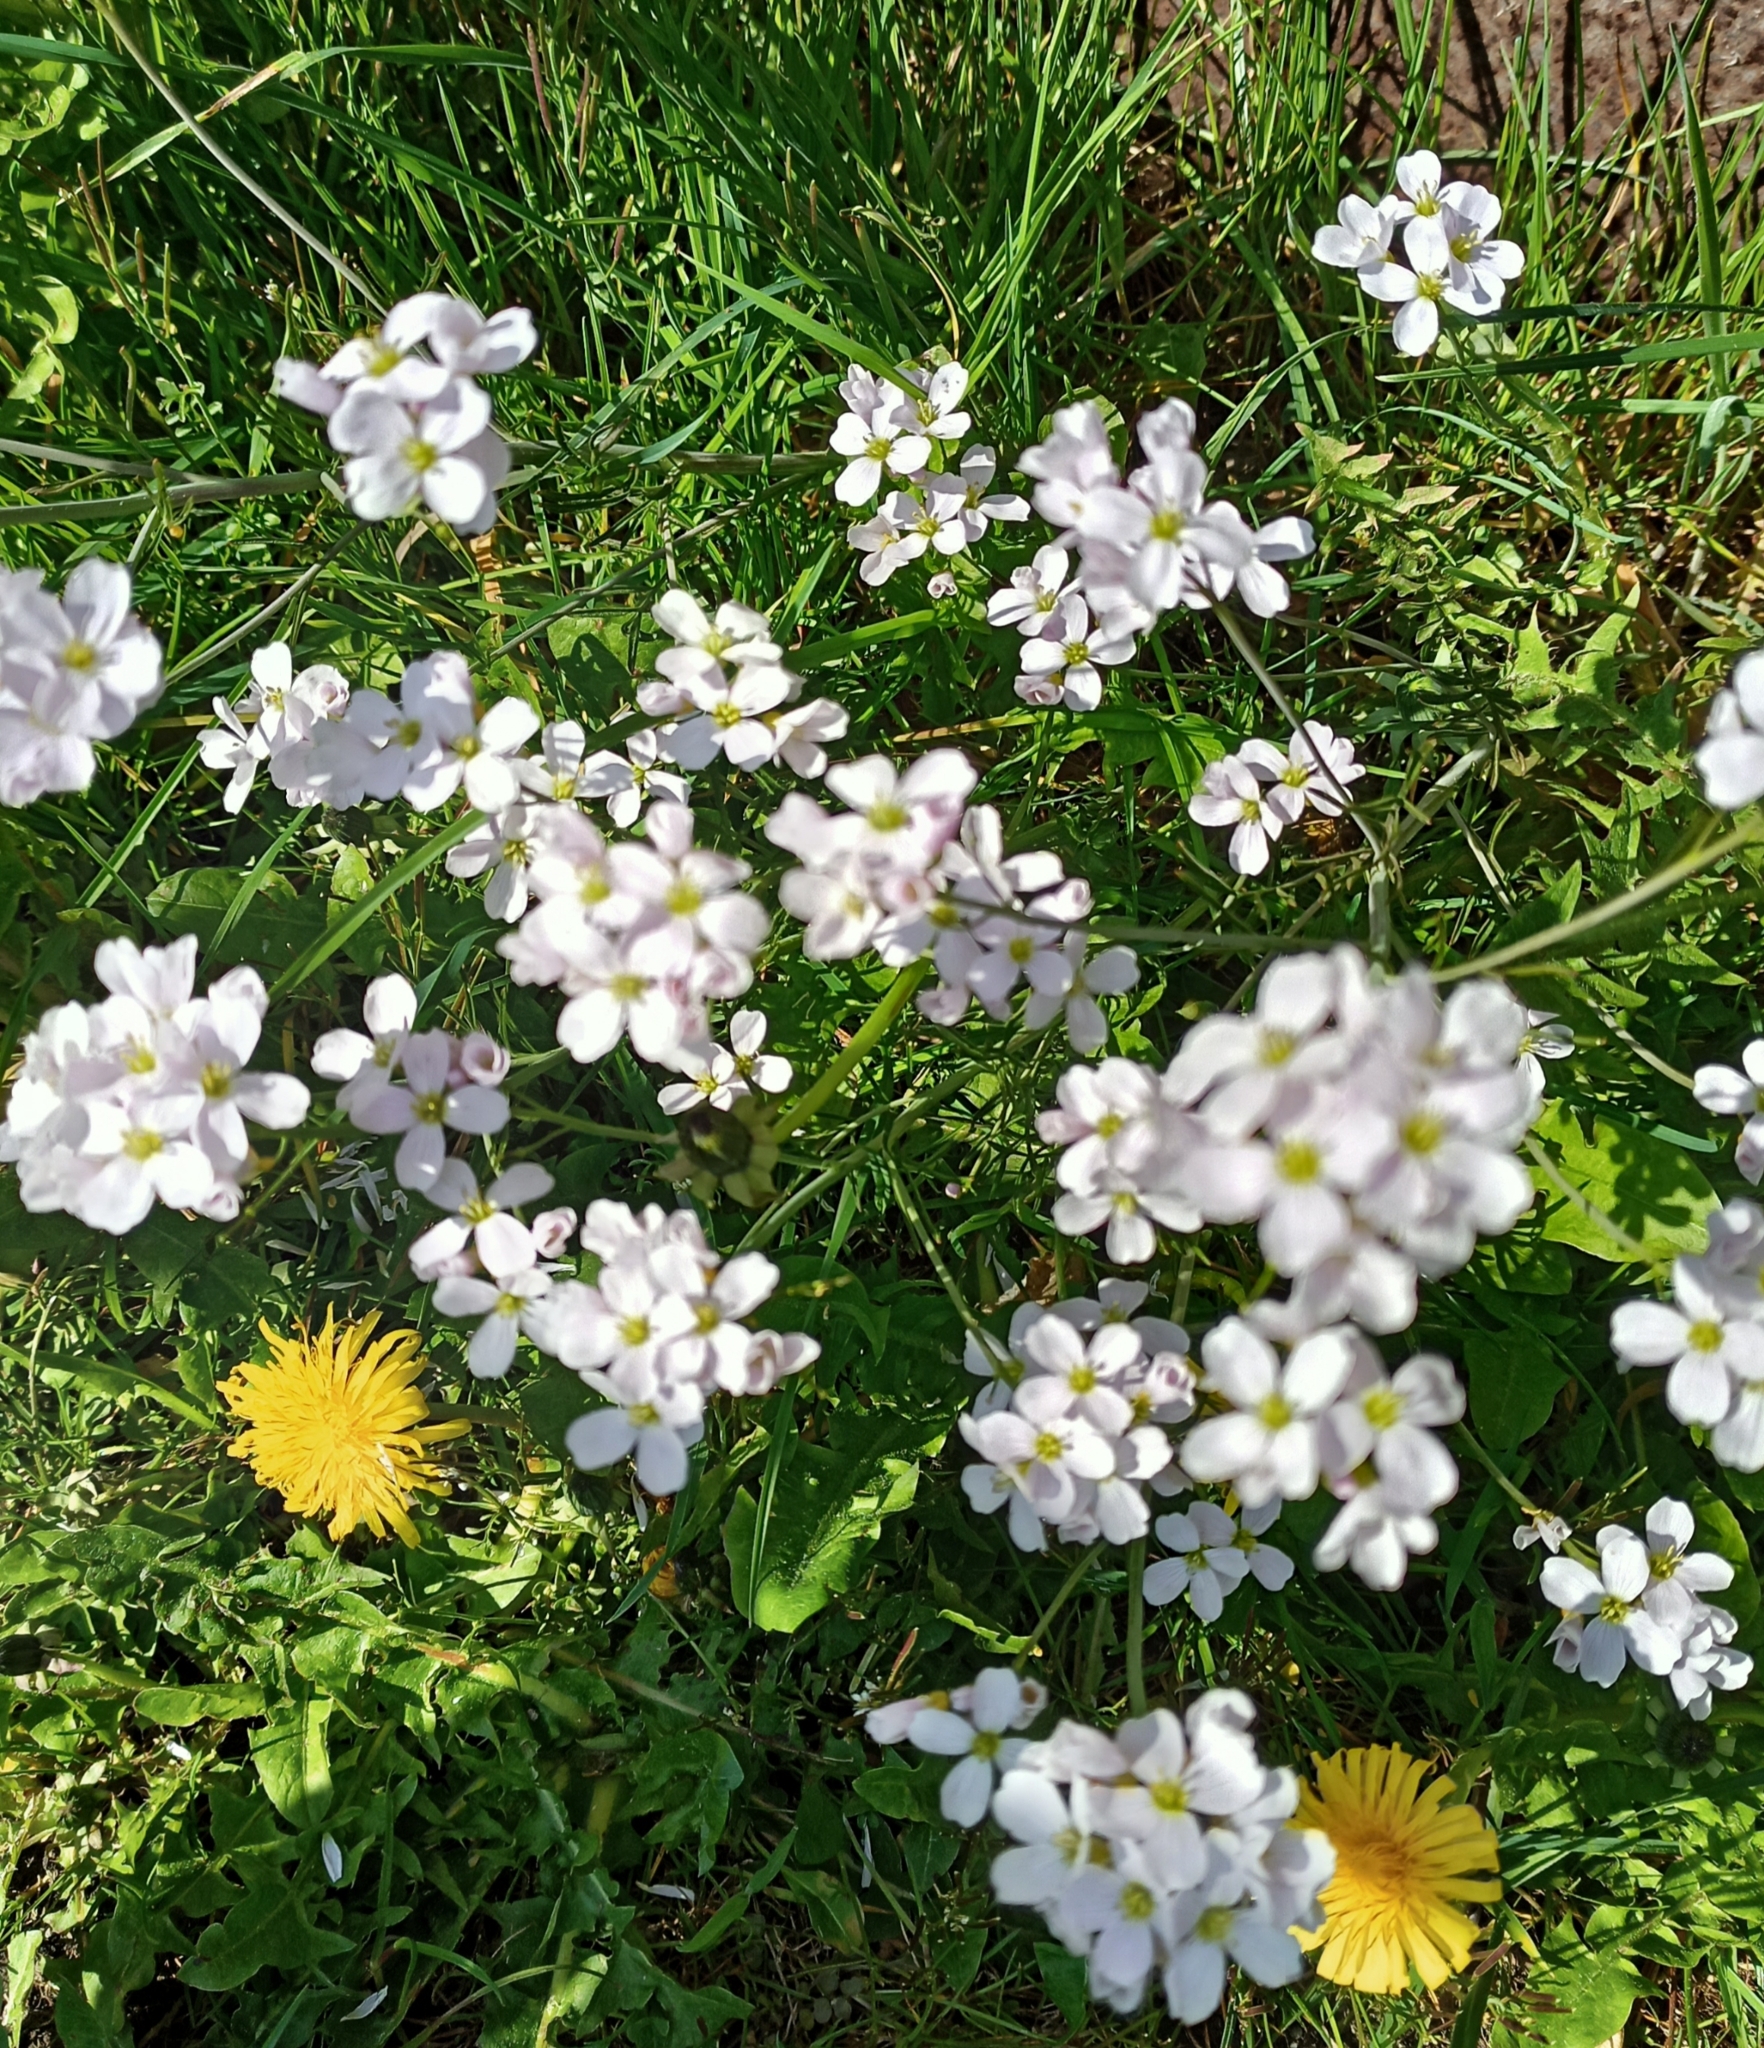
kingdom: Plantae
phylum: Tracheophyta
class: Magnoliopsida
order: Brassicales
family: Brassicaceae
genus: Cardamine
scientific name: Cardamine pratensis
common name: Cuckoo flower
